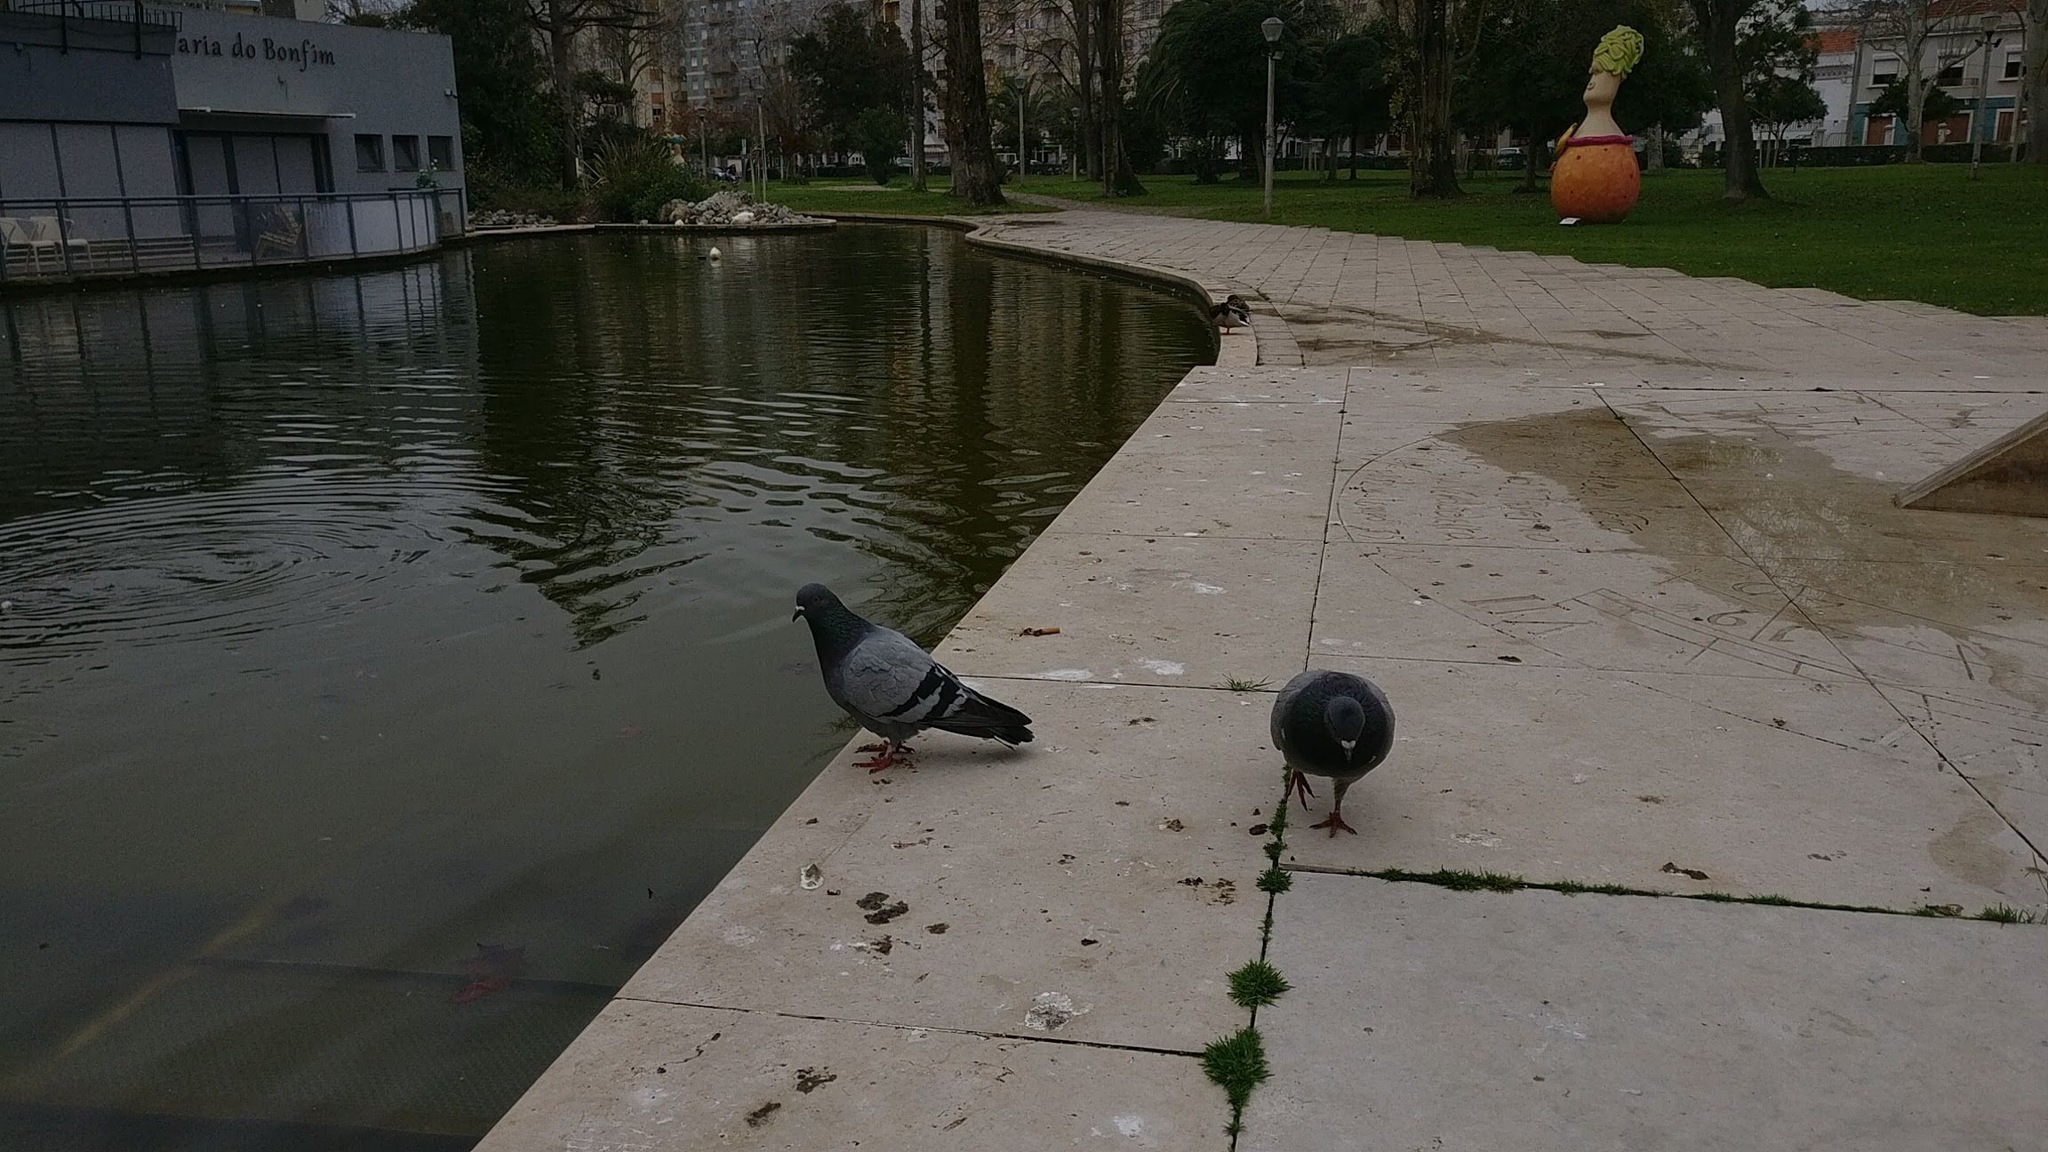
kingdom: Animalia
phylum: Chordata
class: Aves
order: Columbiformes
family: Columbidae
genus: Columba
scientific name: Columba livia
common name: Rock pigeon
